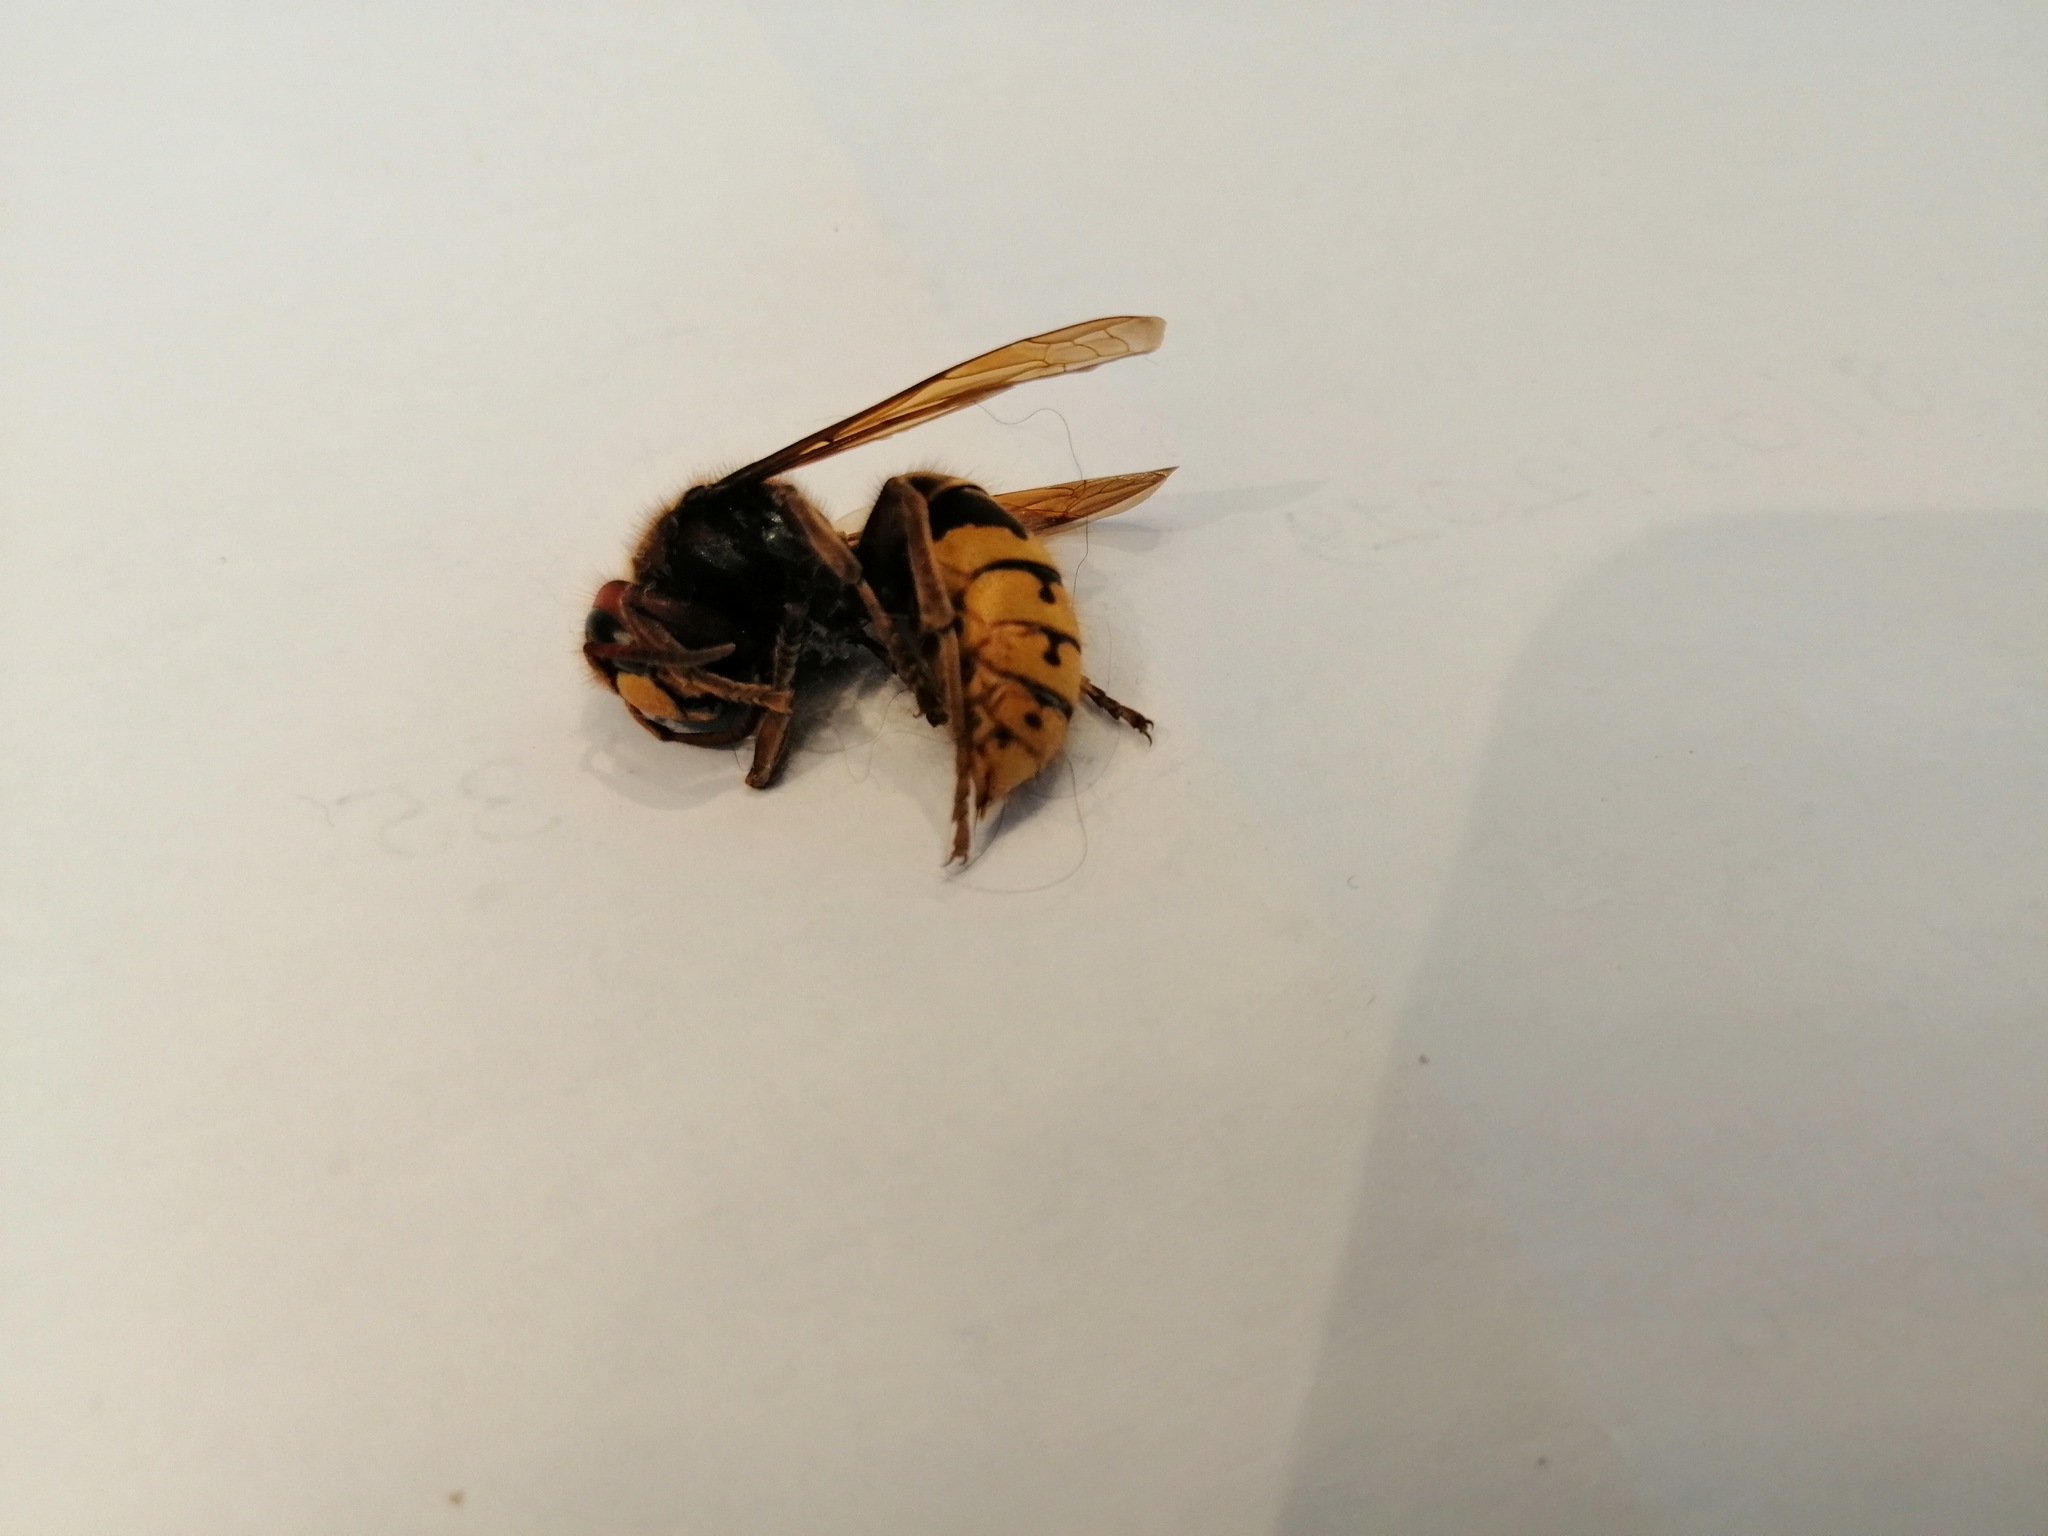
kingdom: Animalia
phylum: Arthropoda
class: Insecta
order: Hymenoptera
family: Vespidae
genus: Vespa
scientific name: Vespa crabro
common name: Hornet
